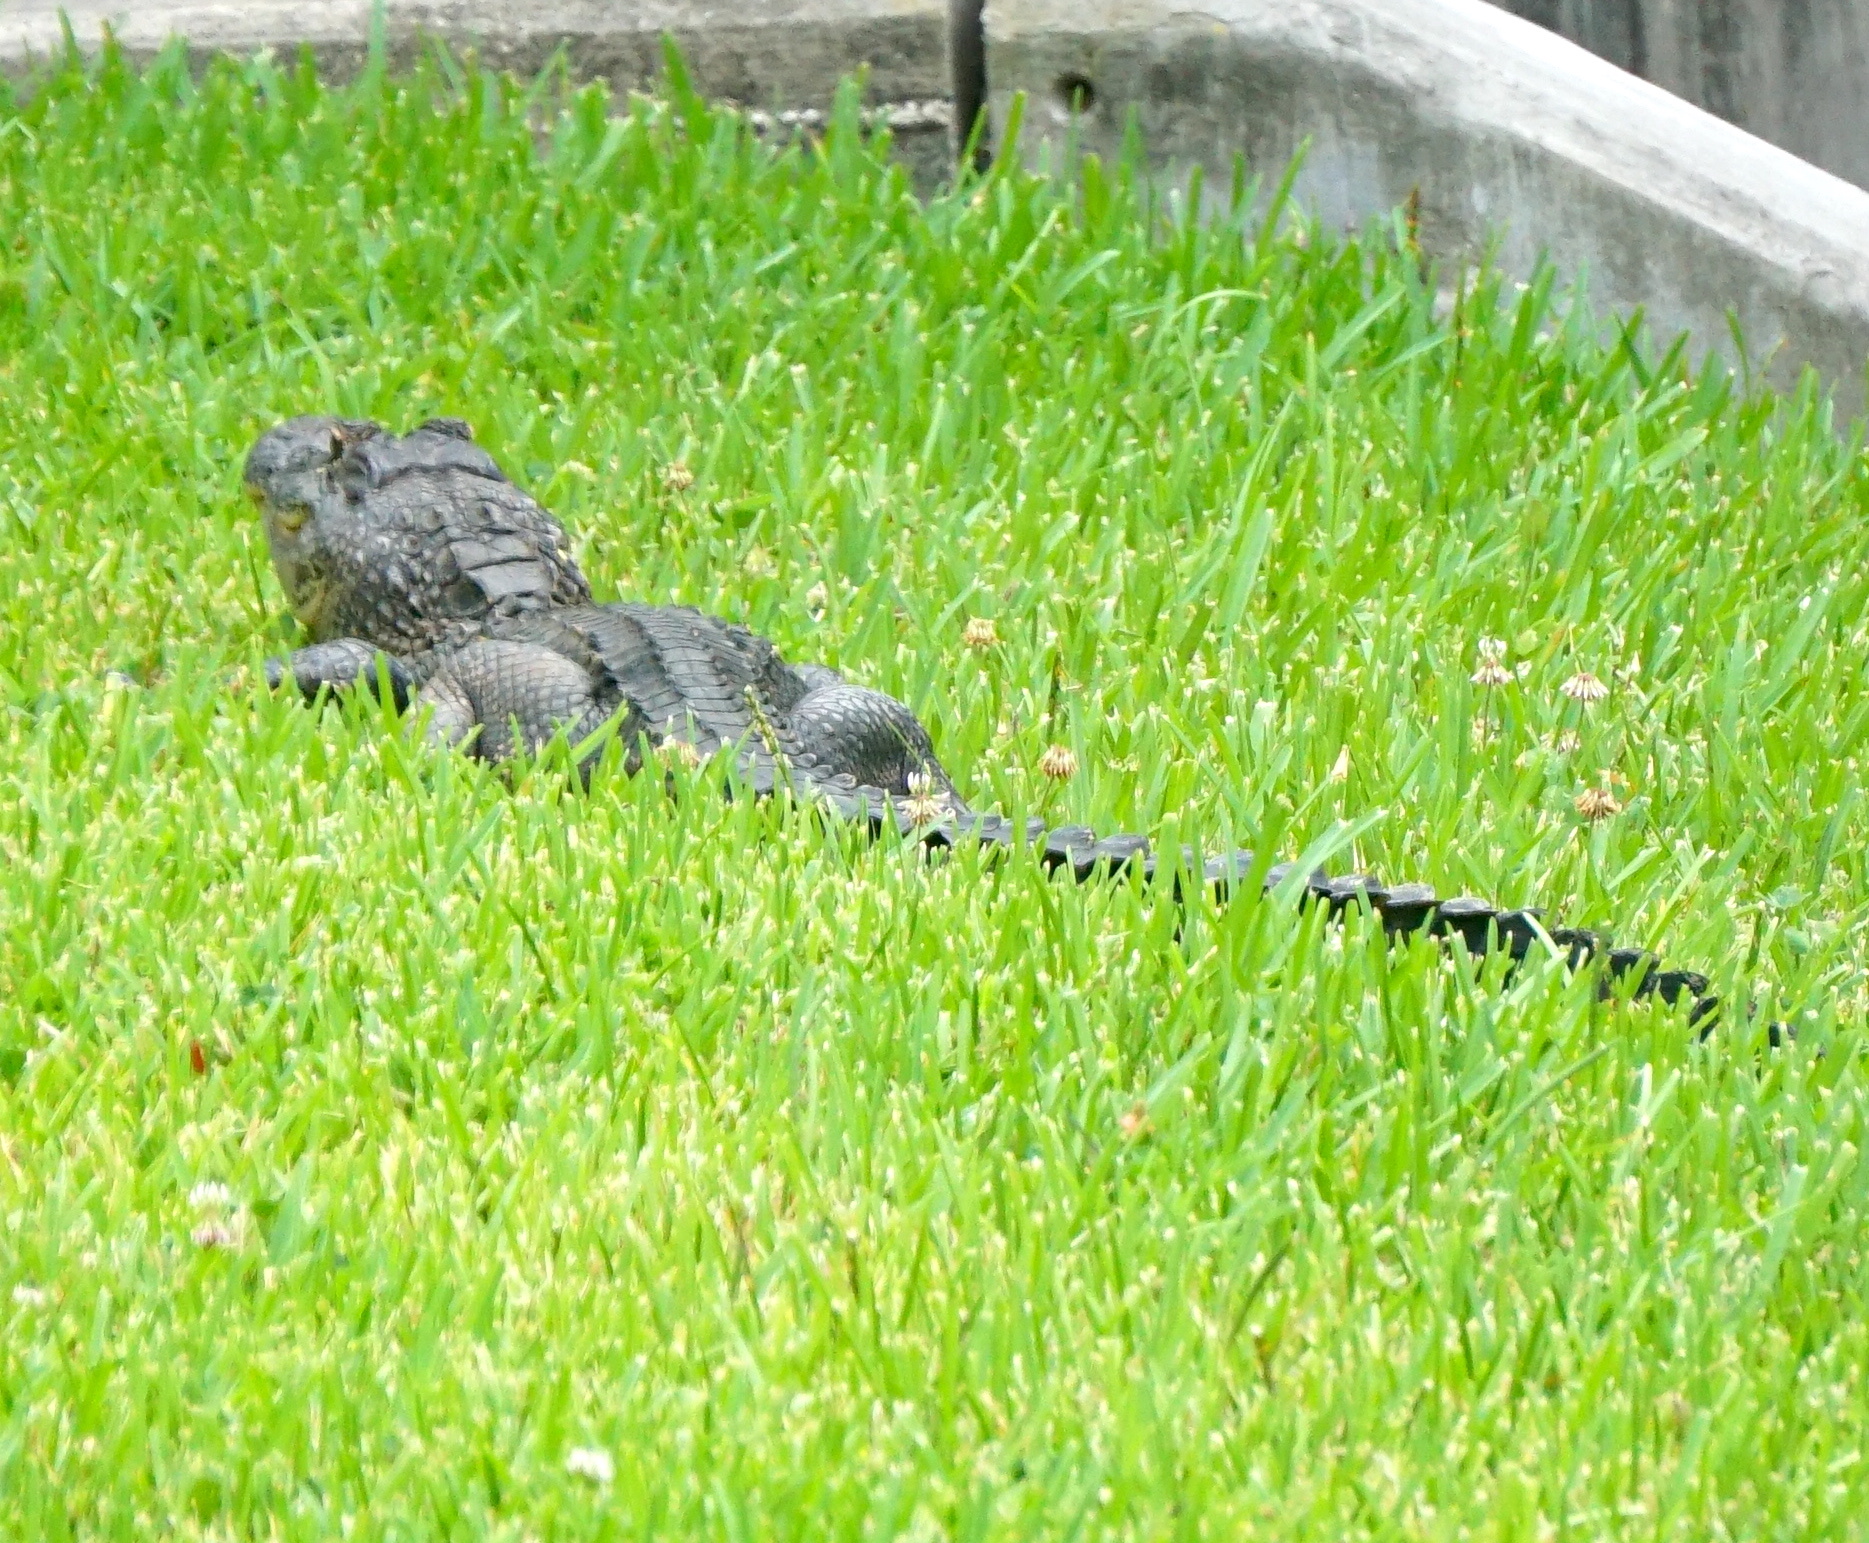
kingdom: Animalia
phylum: Chordata
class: Crocodylia
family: Alligatoridae
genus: Alligator
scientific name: Alligator mississippiensis
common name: American alligator
